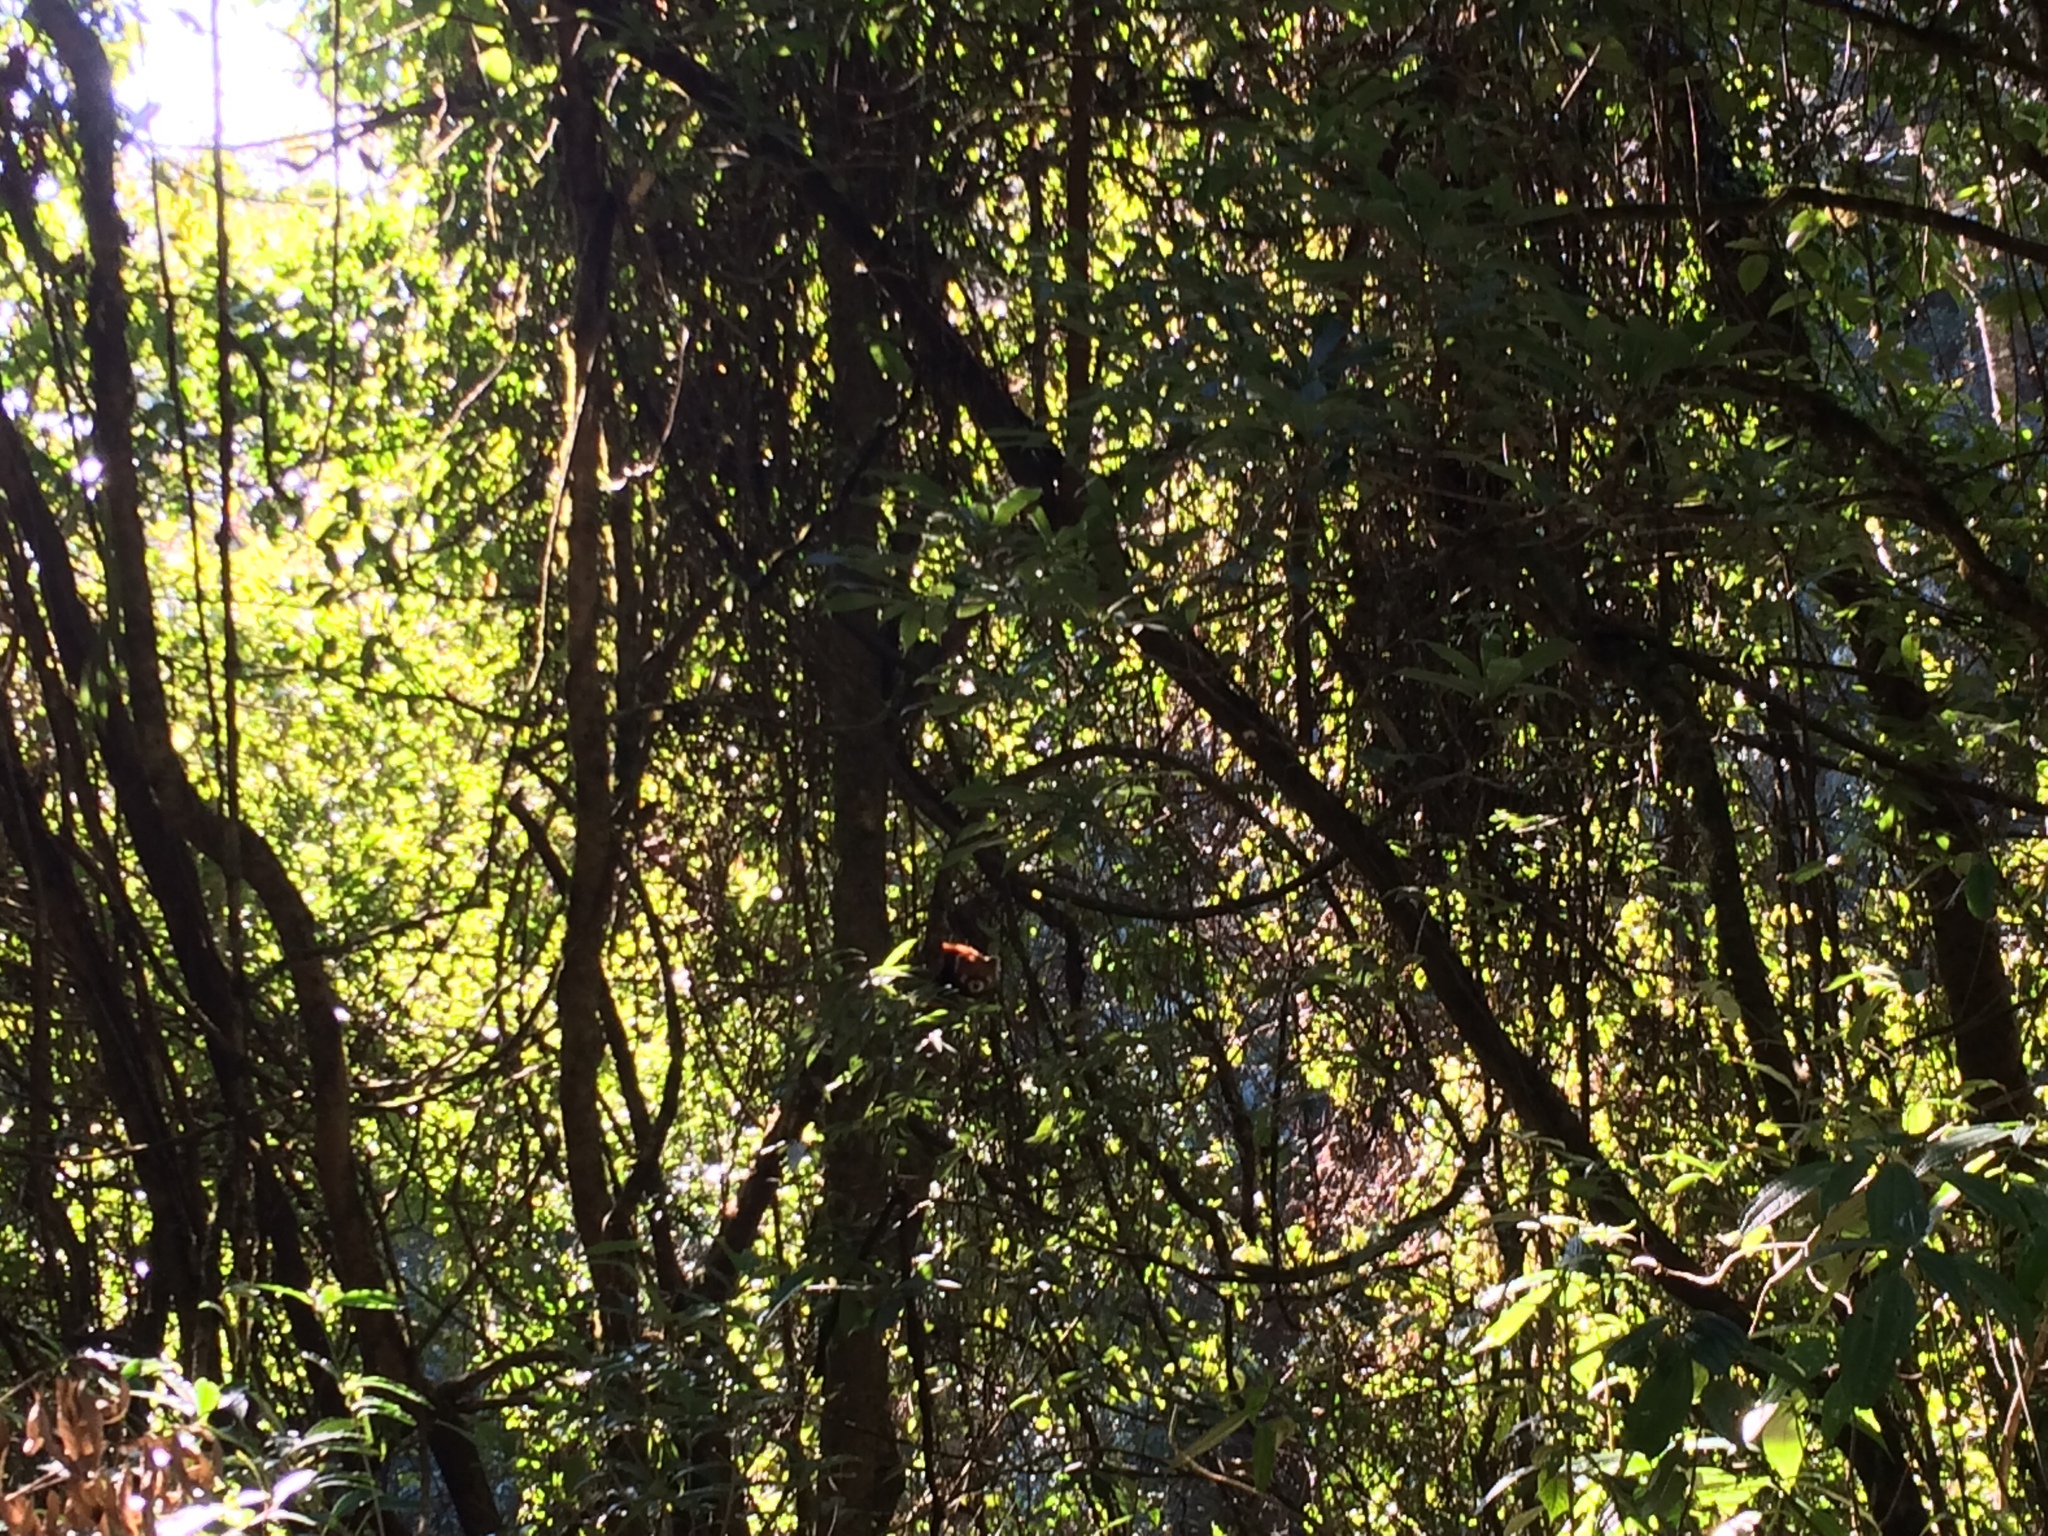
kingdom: Animalia
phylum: Chordata
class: Mammalia
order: Carnivora
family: Ailuridae
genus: Ailurus
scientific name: Ailurus styani
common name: Chinese red panda
